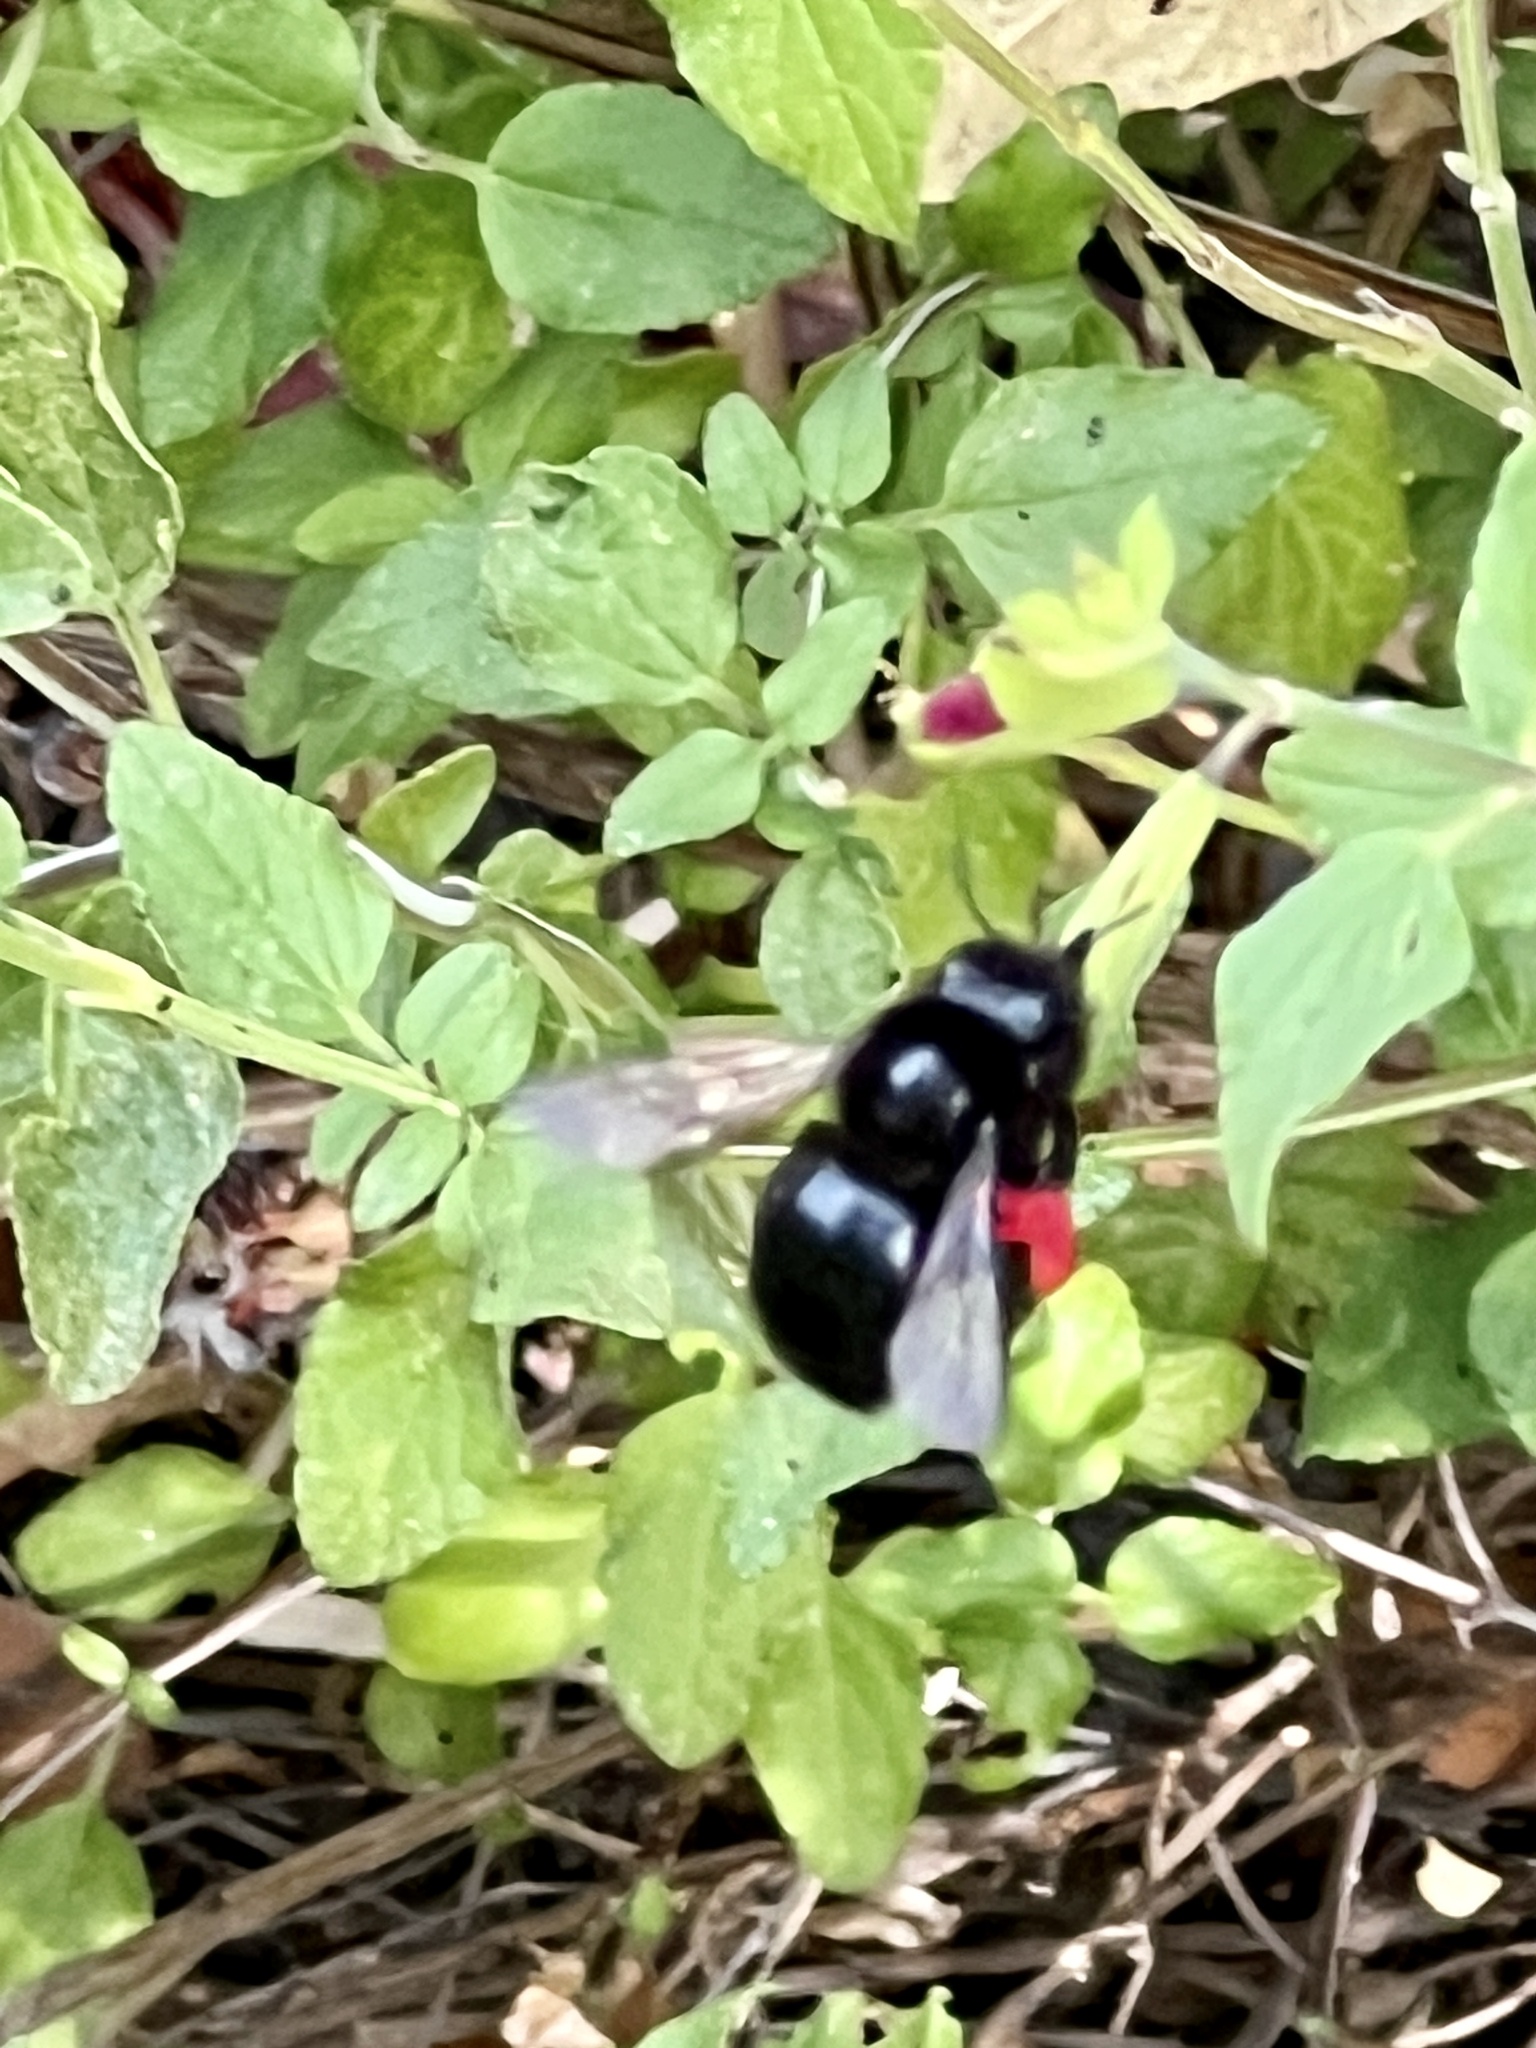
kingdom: Animalia
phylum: Arthropoda
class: Insecta
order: Hymenoptera
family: Apidae
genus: Xylocopa
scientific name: Xylocopa tabaniformis
